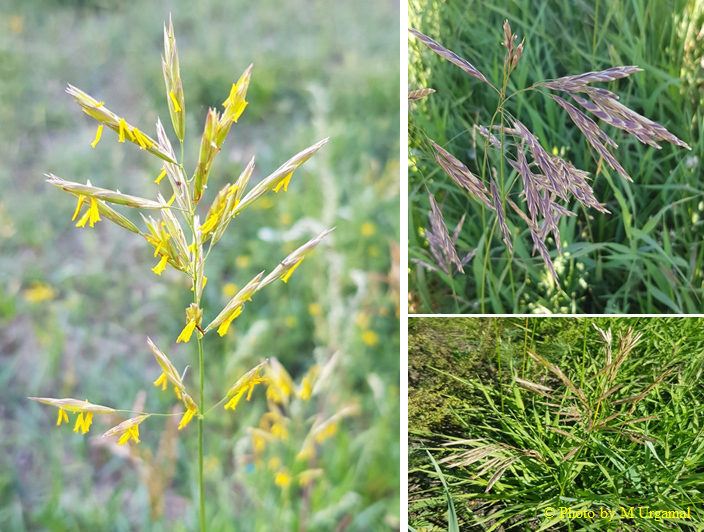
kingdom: Plantae
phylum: Tracheophyta
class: Liliopsida
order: Poales
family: Poaceae
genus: Bromus
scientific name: Bromus inermis
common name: Smooth brome
